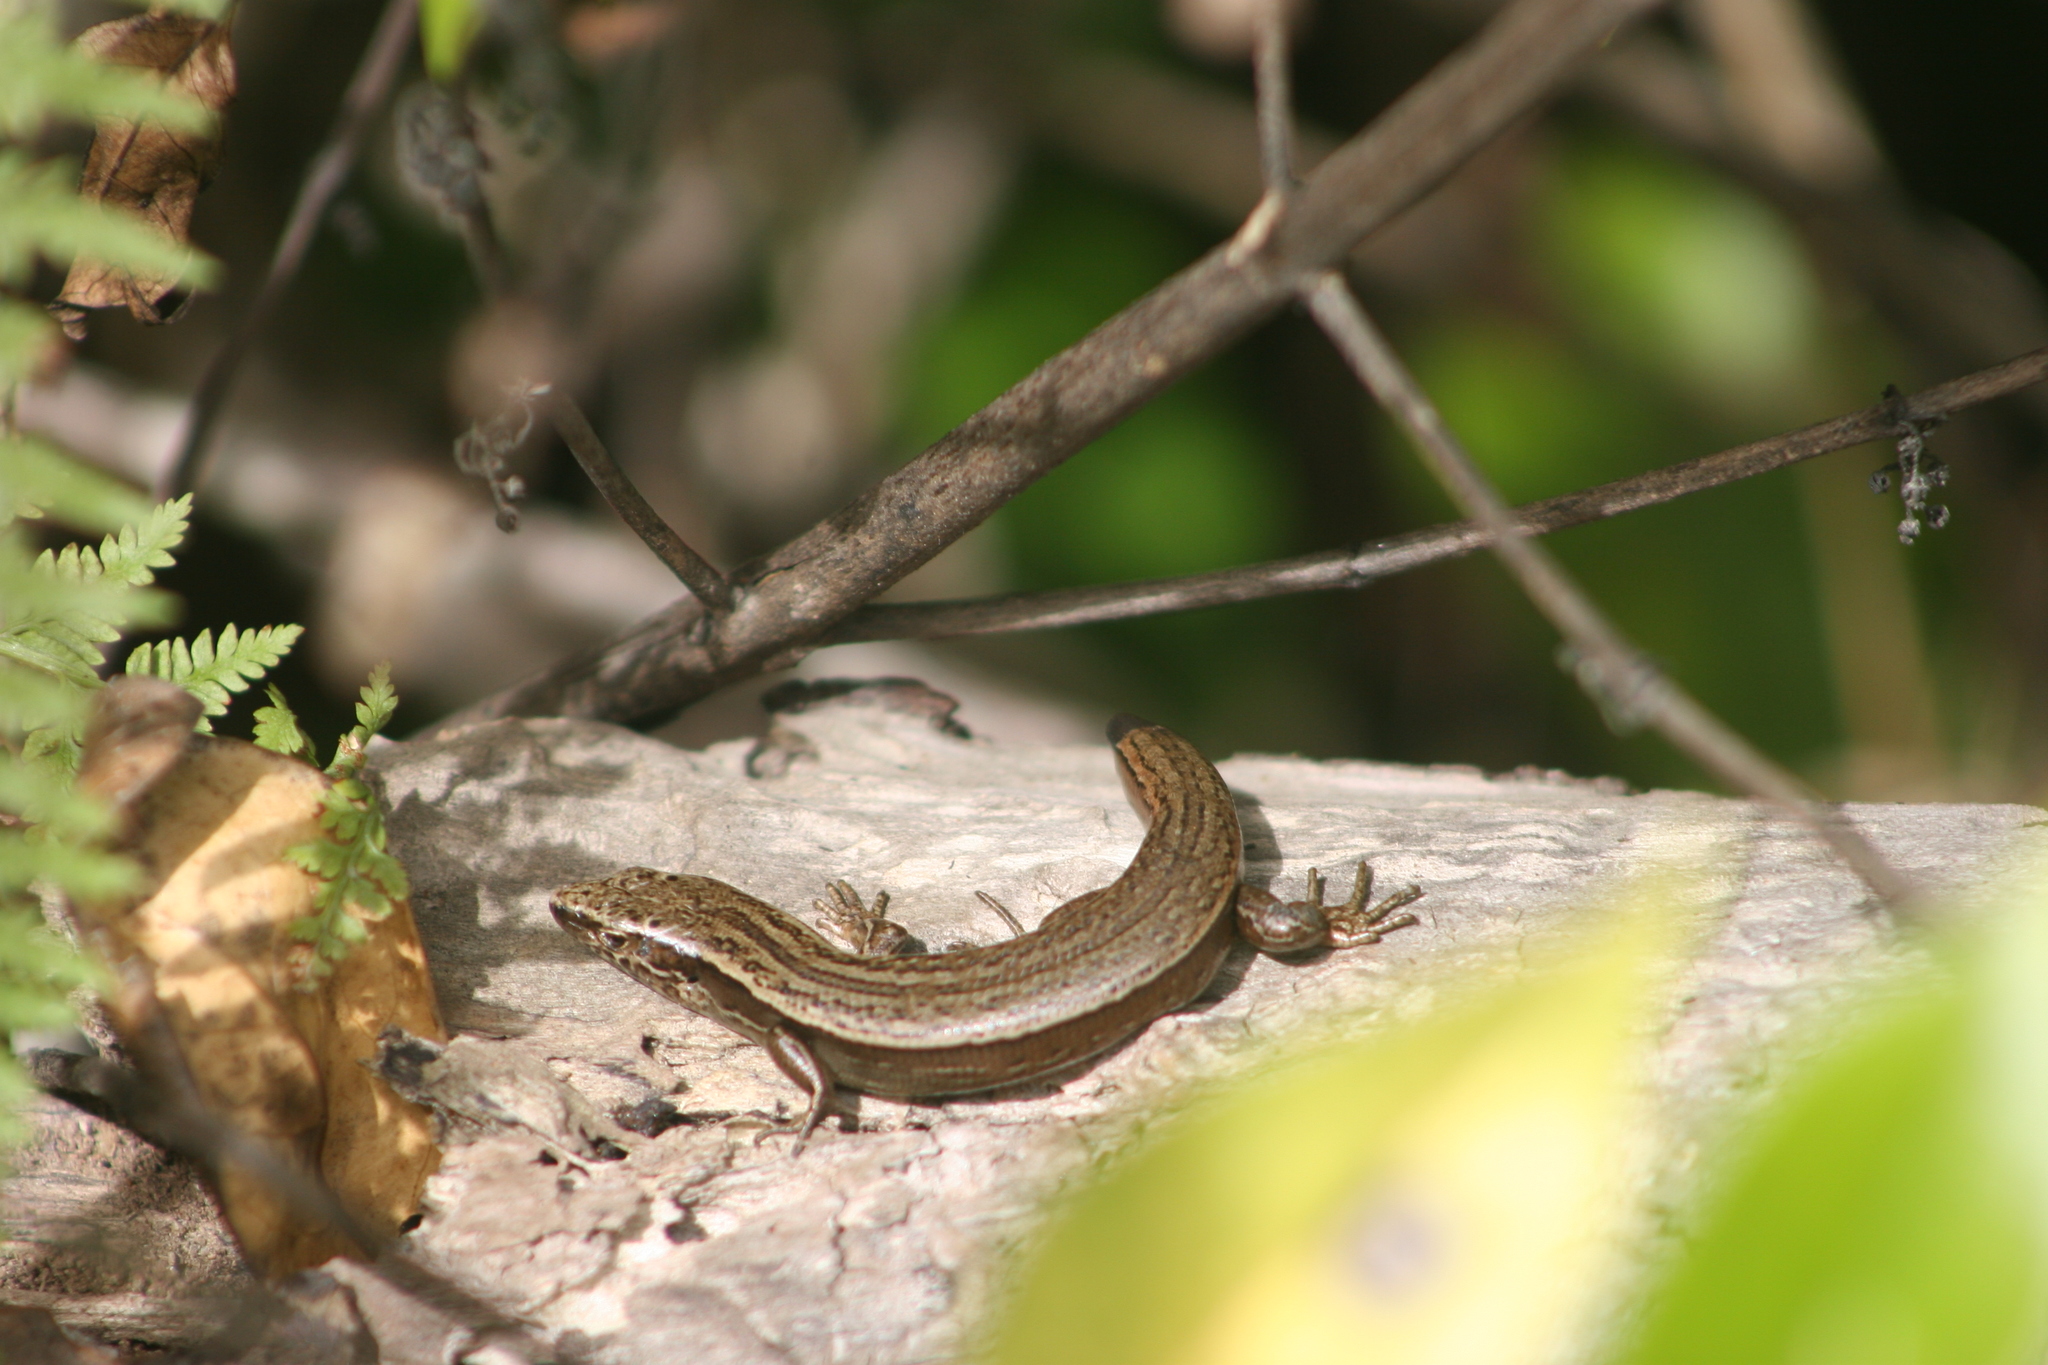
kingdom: Animalia
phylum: Chordata
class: Squamata
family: Scincidae
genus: Oligosoma
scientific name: Oligosoma zelandicum
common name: Brown skink
